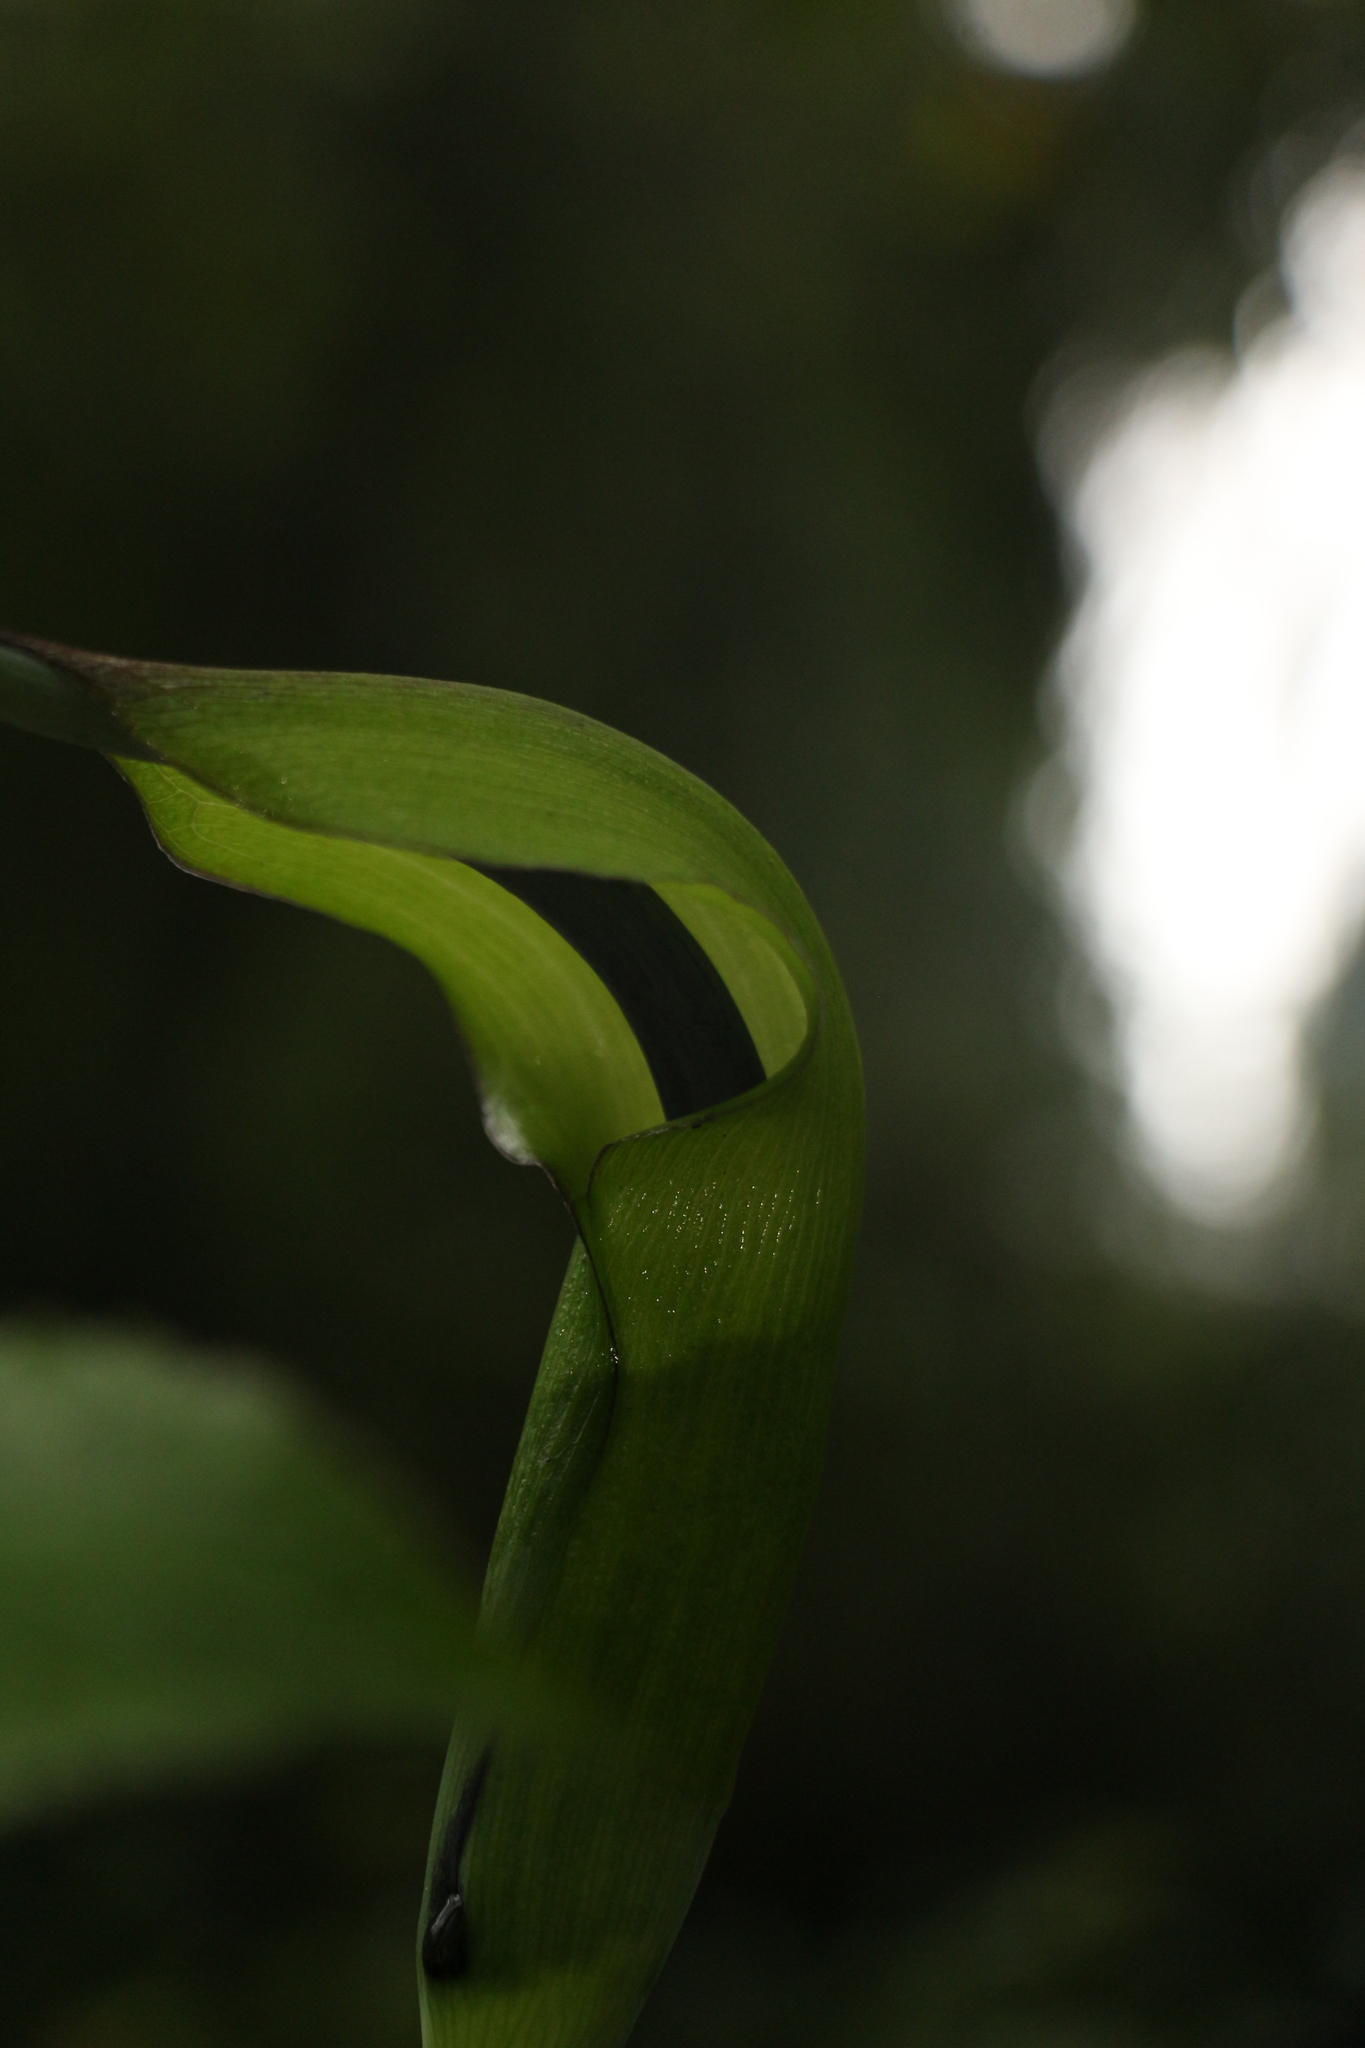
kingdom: Plantae
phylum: Tracheophyta
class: Liliopsida
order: Alismatales
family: Araceae
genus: Arisaema
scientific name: Arisaema tortuosum
